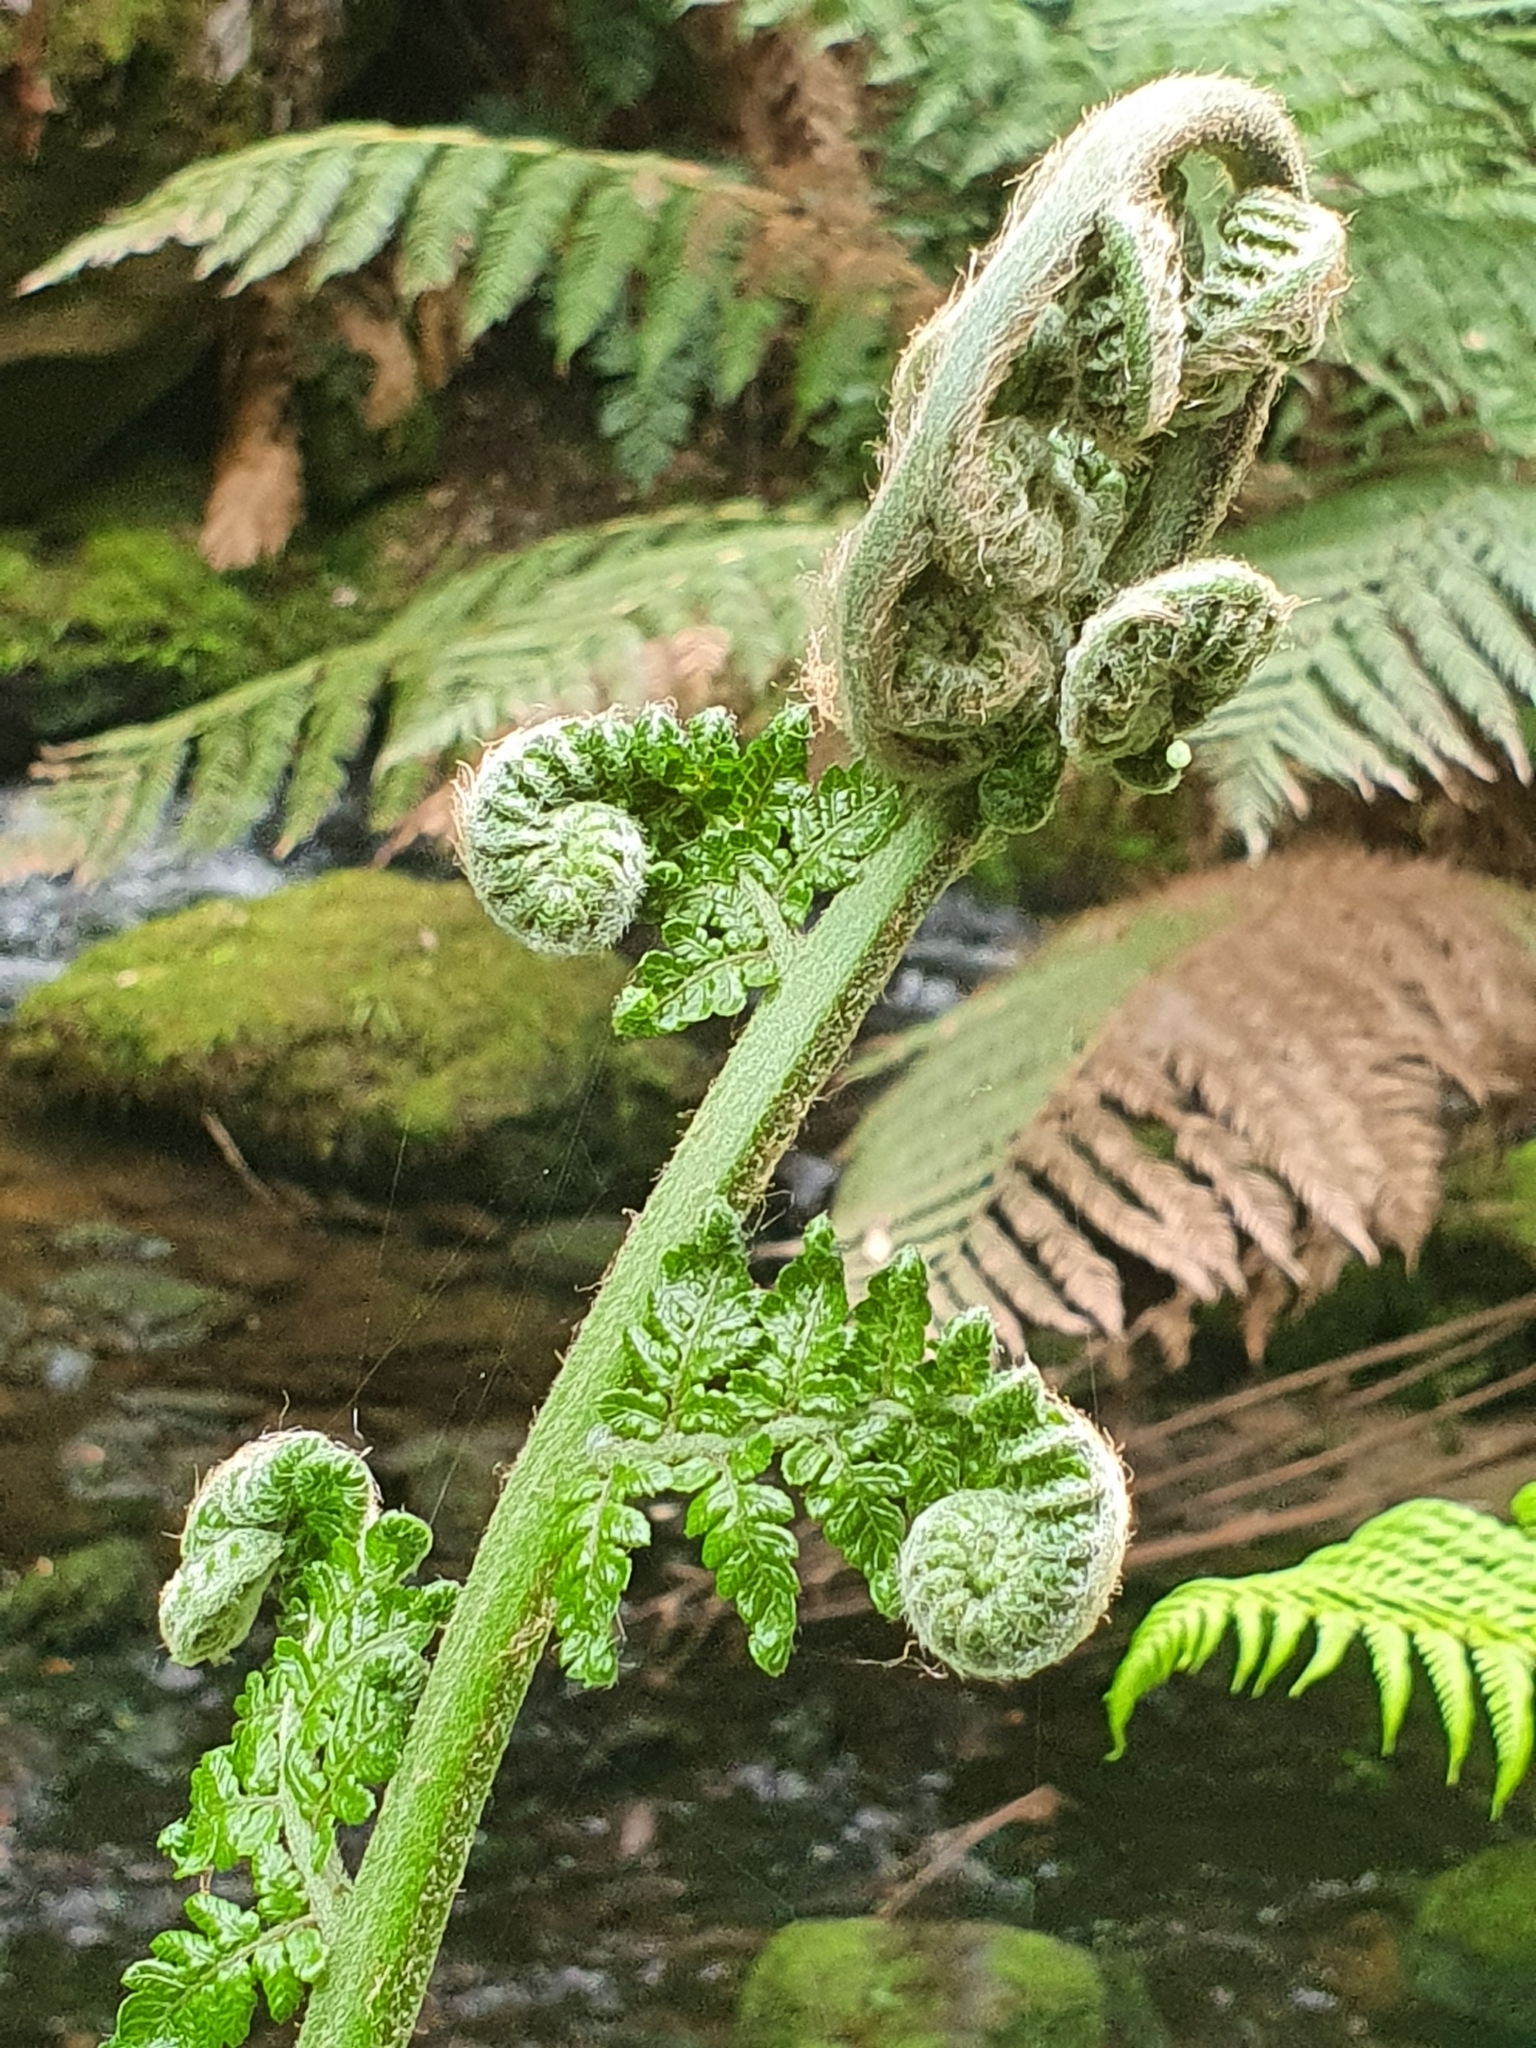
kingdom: Plantae
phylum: Tracheophyta
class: Polypodiopsida
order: Cyatheales
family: Dicksoniaceae
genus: Dicksonia
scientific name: Dicksonia antarctica
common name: Australian treefern
